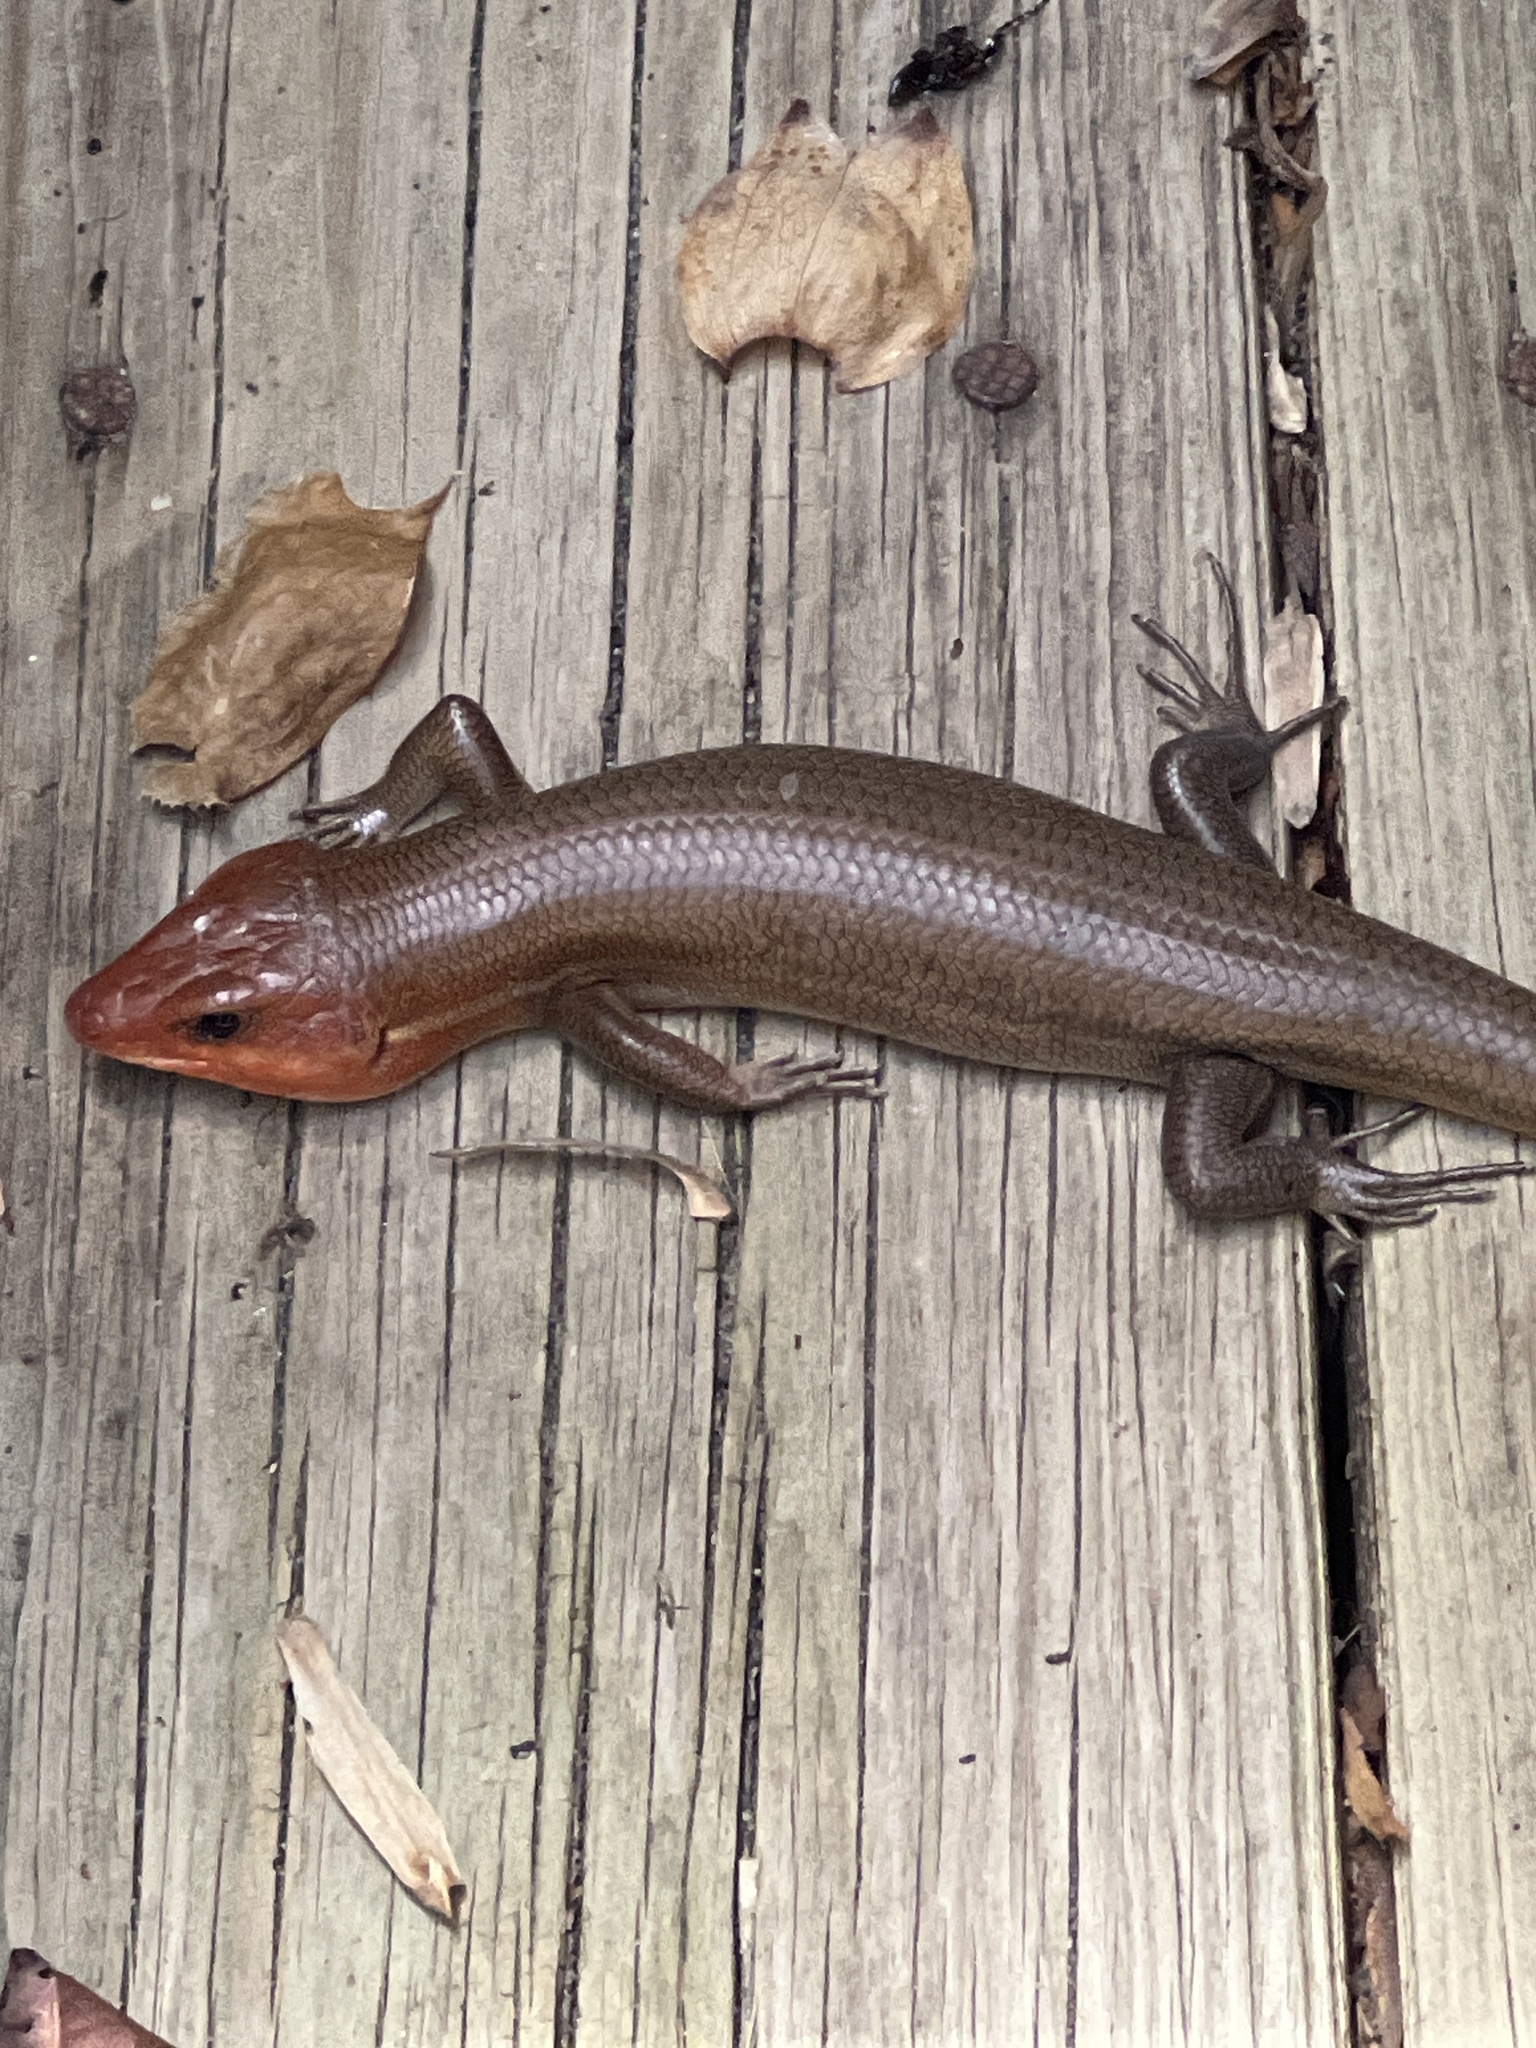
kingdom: Animalia
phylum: Chordata
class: Squamata
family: Scincidae
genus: Plestiodon
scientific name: Plestiodon laticeps
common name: Broadhead skink
